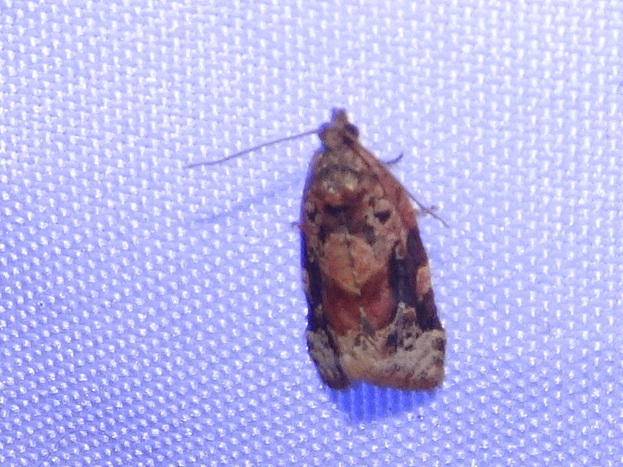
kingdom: Animalia
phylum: Arthropoda
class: Insecta
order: Lepidoptera
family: Tortricidae
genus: Argyrotaenia
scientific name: Argyrotaenia velutinana
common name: Red-banded leafroller moth
